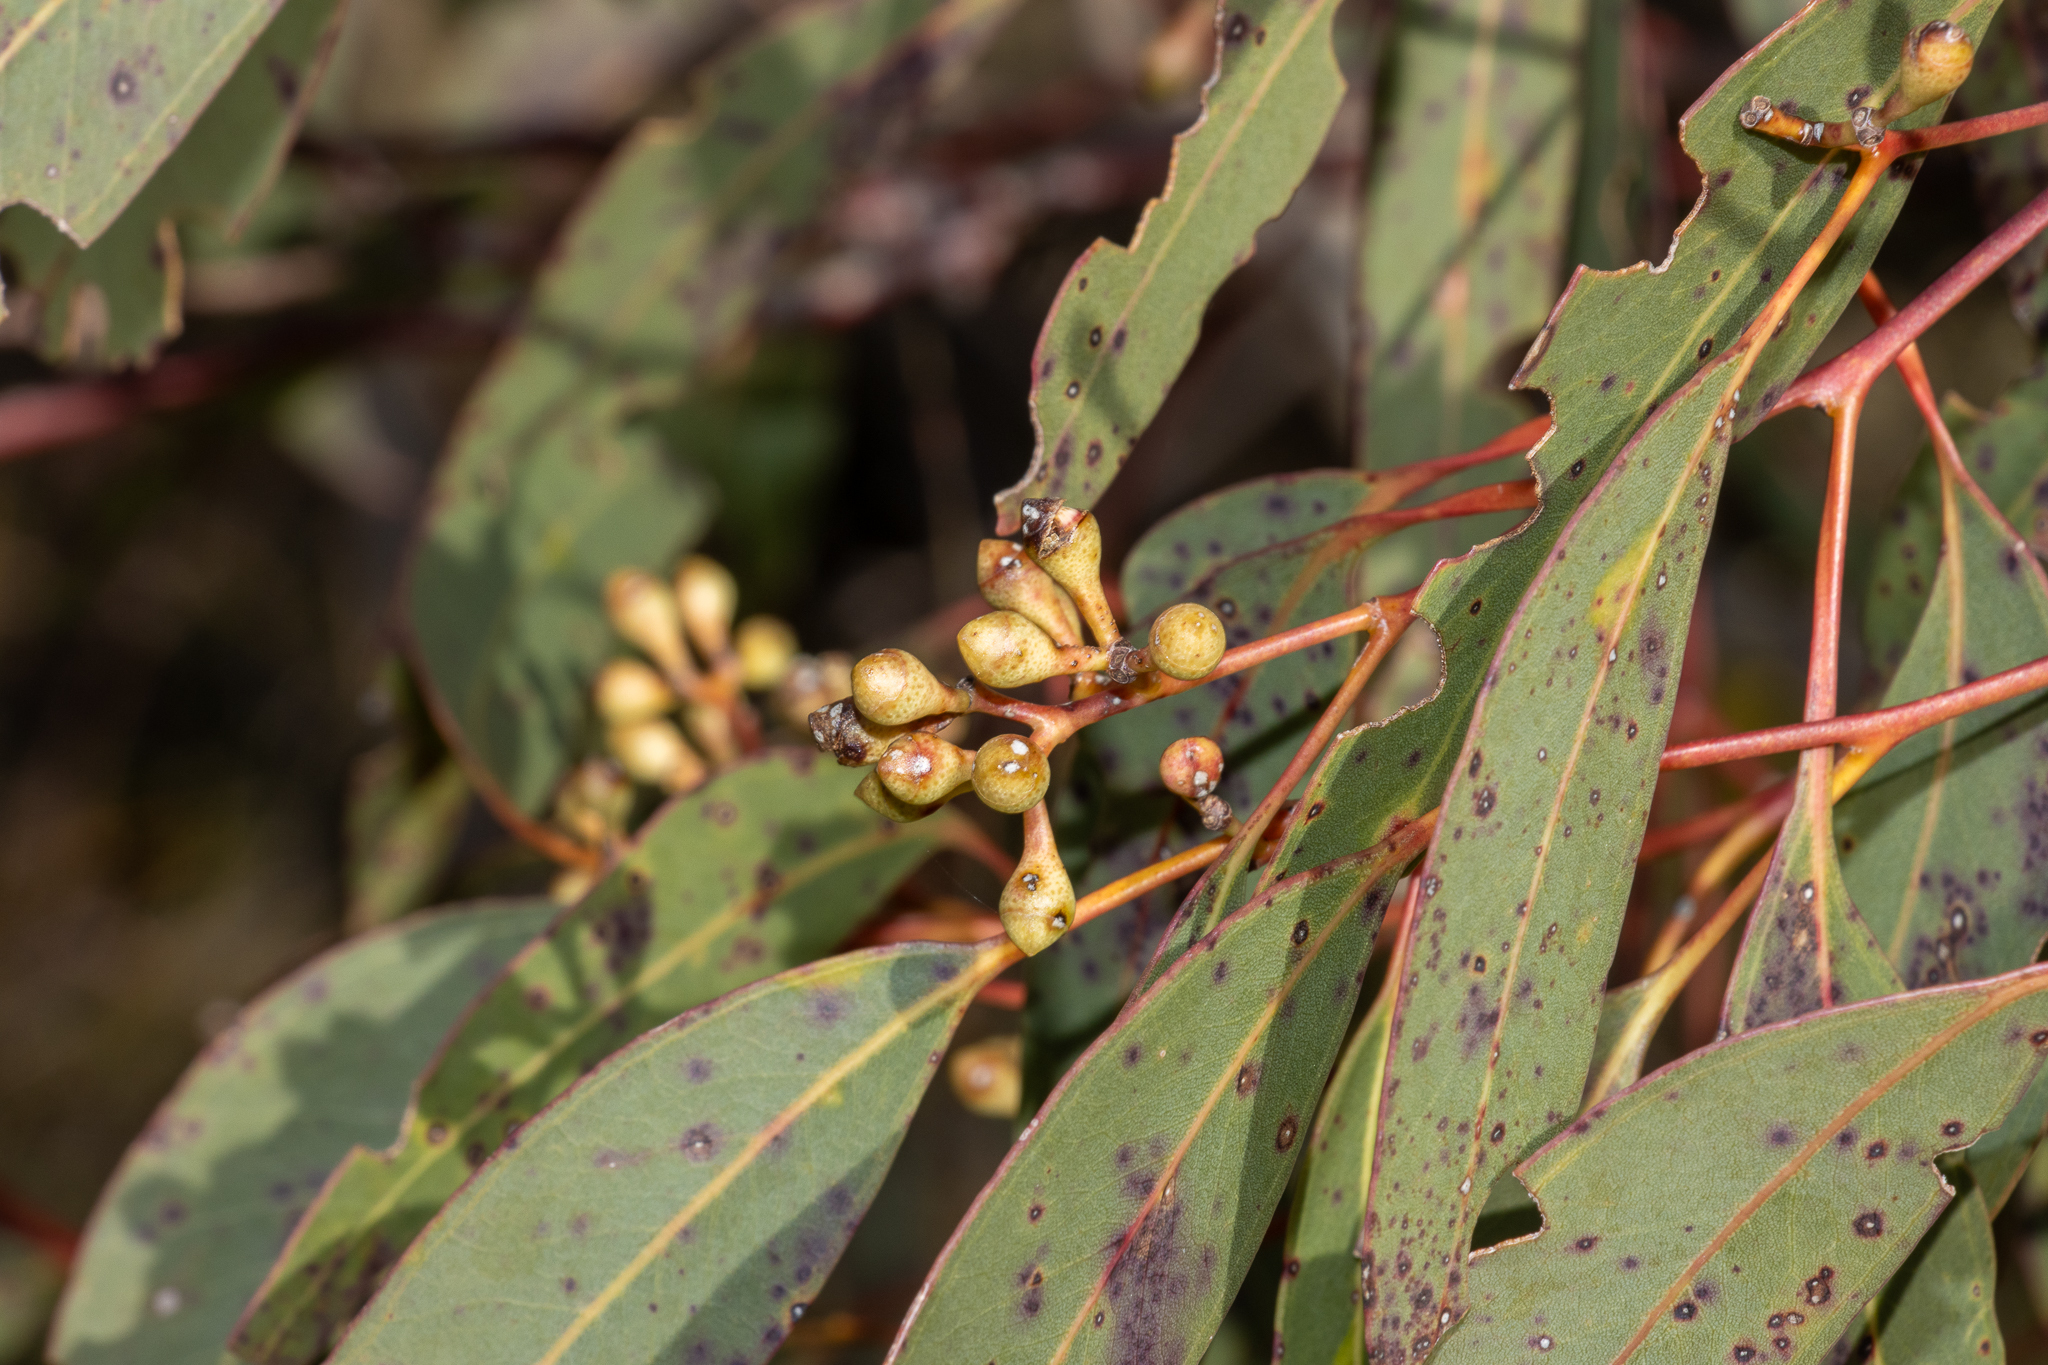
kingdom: Plantae
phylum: Tracheophyta
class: Magnoliopsida
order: Myrtales
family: Myrtaceae
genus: Eucalyptus
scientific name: Eucalyptus fasciculosa
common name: Hill gum
